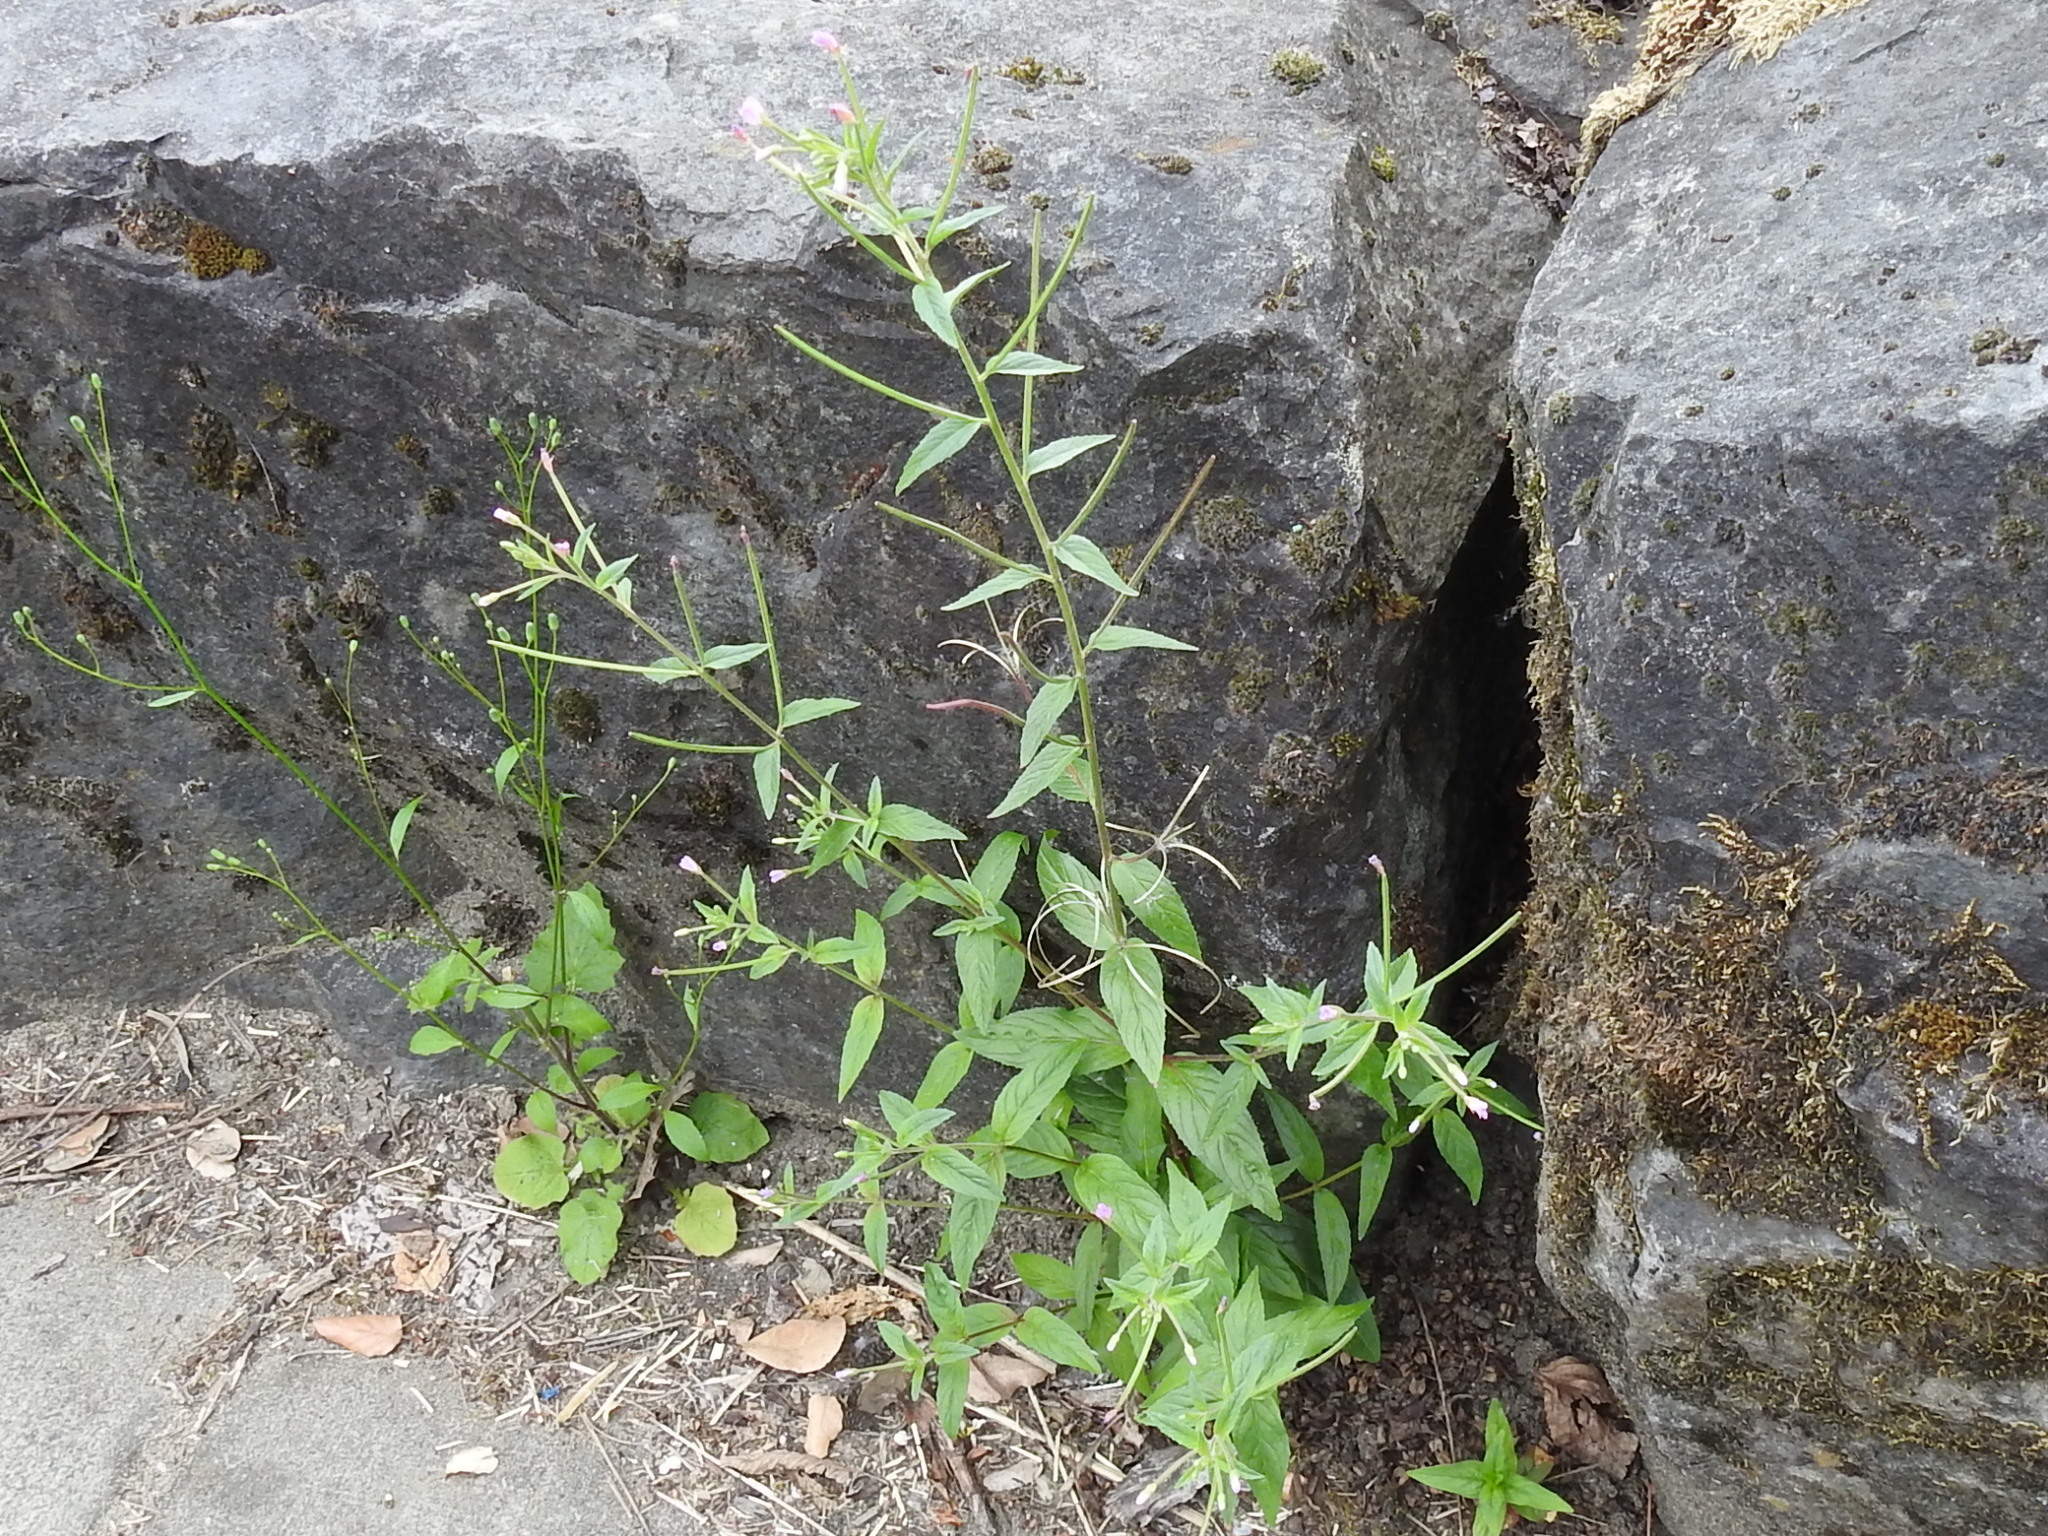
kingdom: Plantae
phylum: Tracheophyta
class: Magnoliopsida
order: Myrtales
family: Onagraceae
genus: Epilobium
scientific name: Epilobium ciliatum
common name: American willowherb
